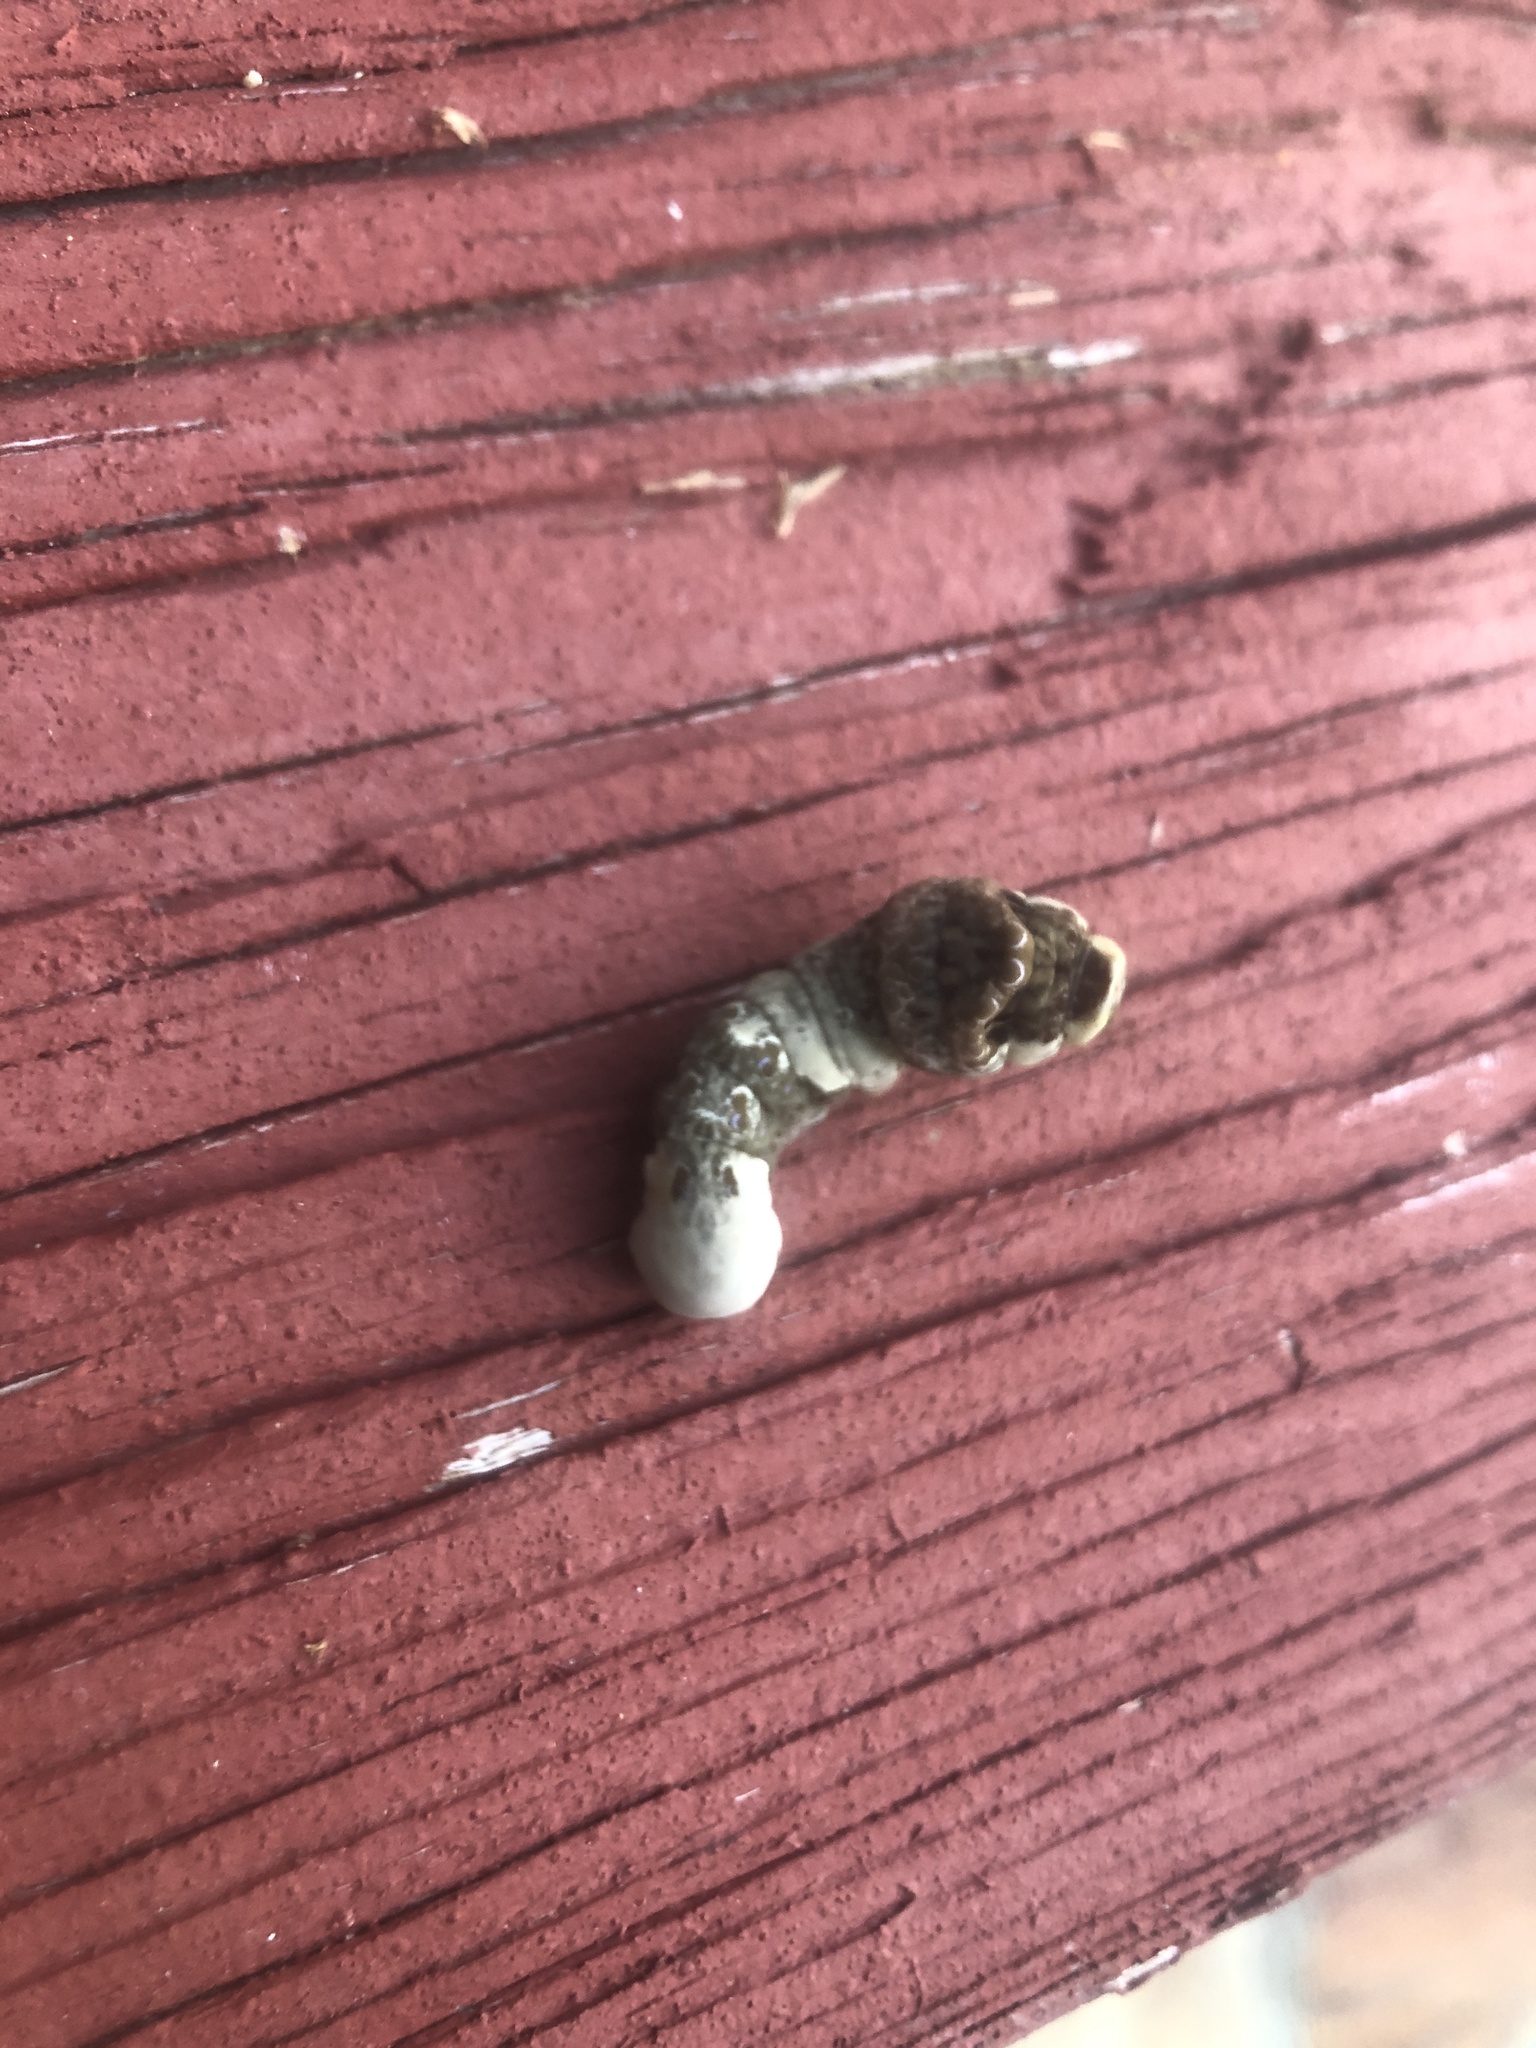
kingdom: Animalia
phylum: Arthropoda
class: Insecta
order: Lepidoptera
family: Papilionidae
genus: Papilio
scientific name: Papilio cresphontes
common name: Giant swallowtail
